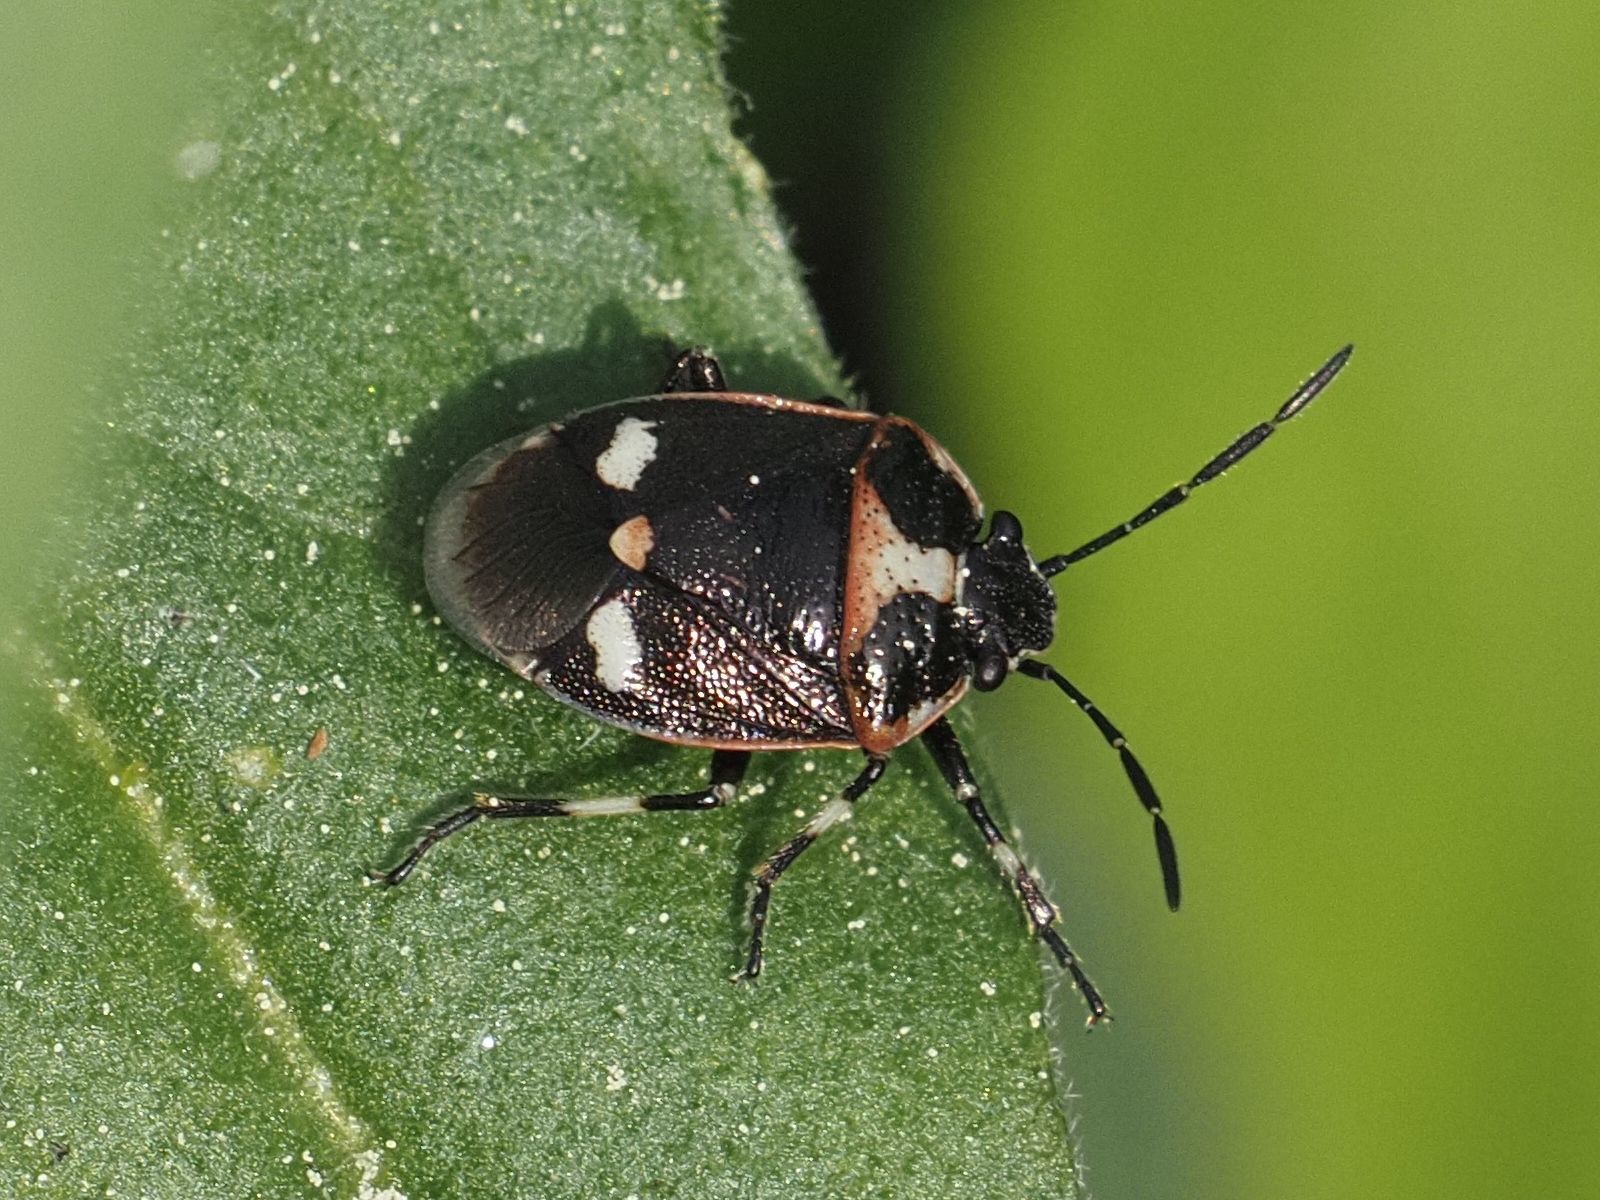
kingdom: Animalia
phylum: Arthropoda
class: Insecta
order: Hemiptera
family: Pentatomidae
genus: Eurydema
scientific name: Eurydema oleracea
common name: Cabbage bug
